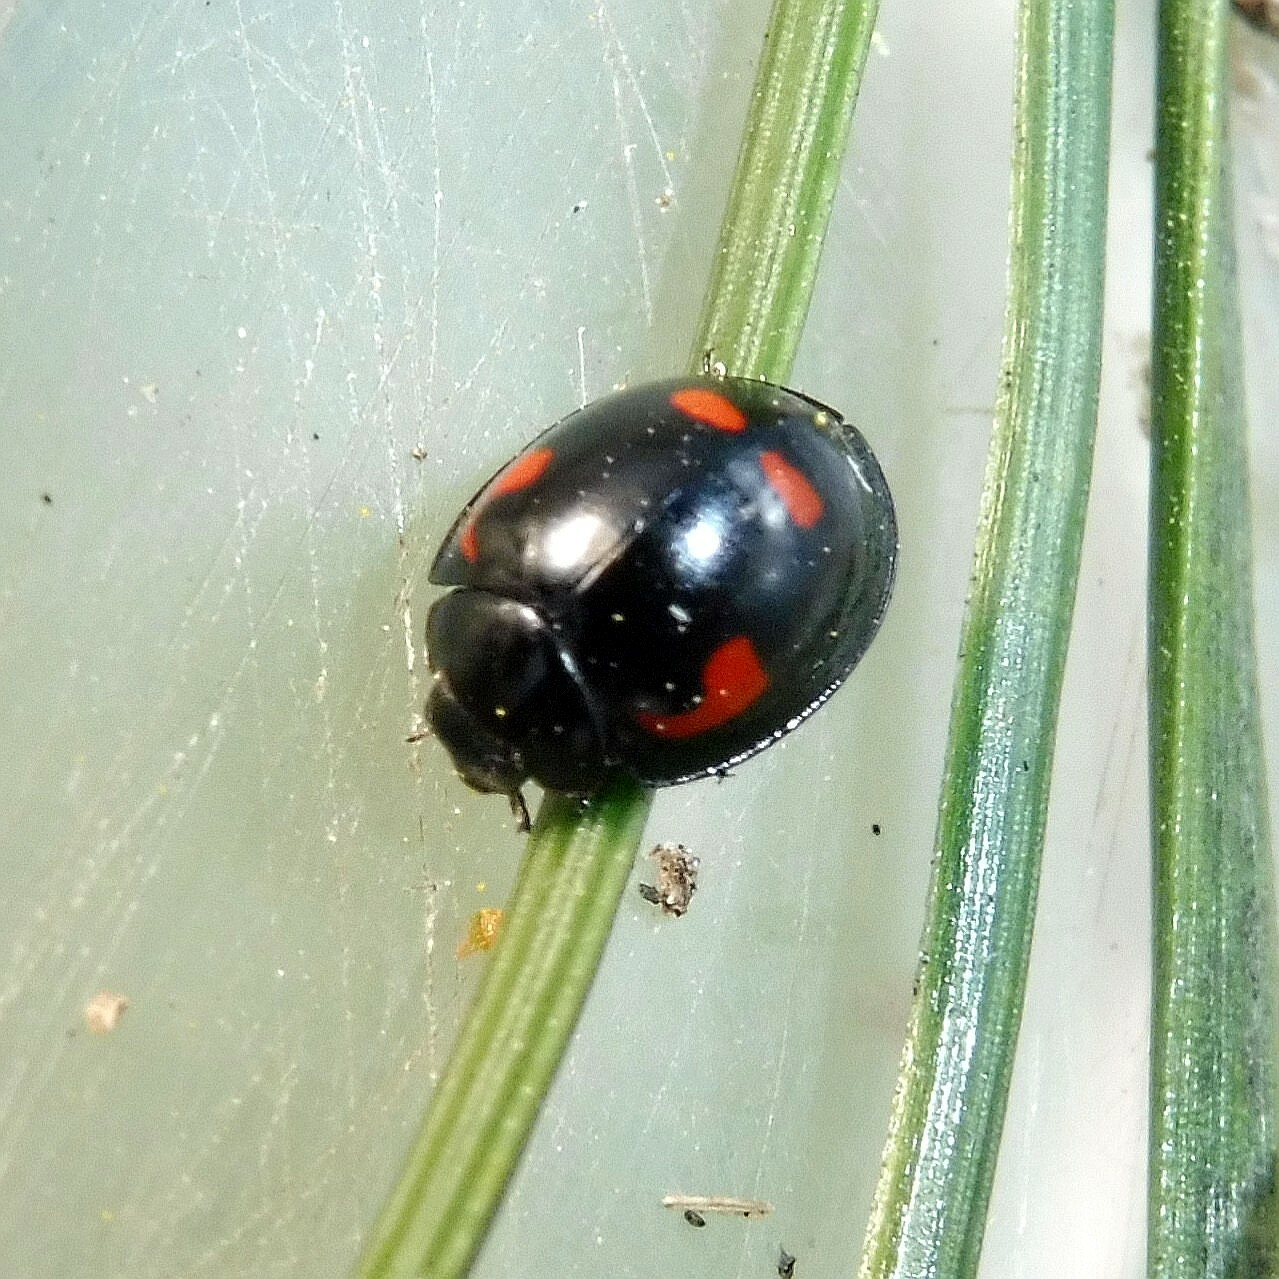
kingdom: Animalia
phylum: Arthropoda
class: Insecta
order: Coleoptera
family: Coccinellidae
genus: Brumus
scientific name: Brumus quadripustulatus
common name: Ladybird beetle
